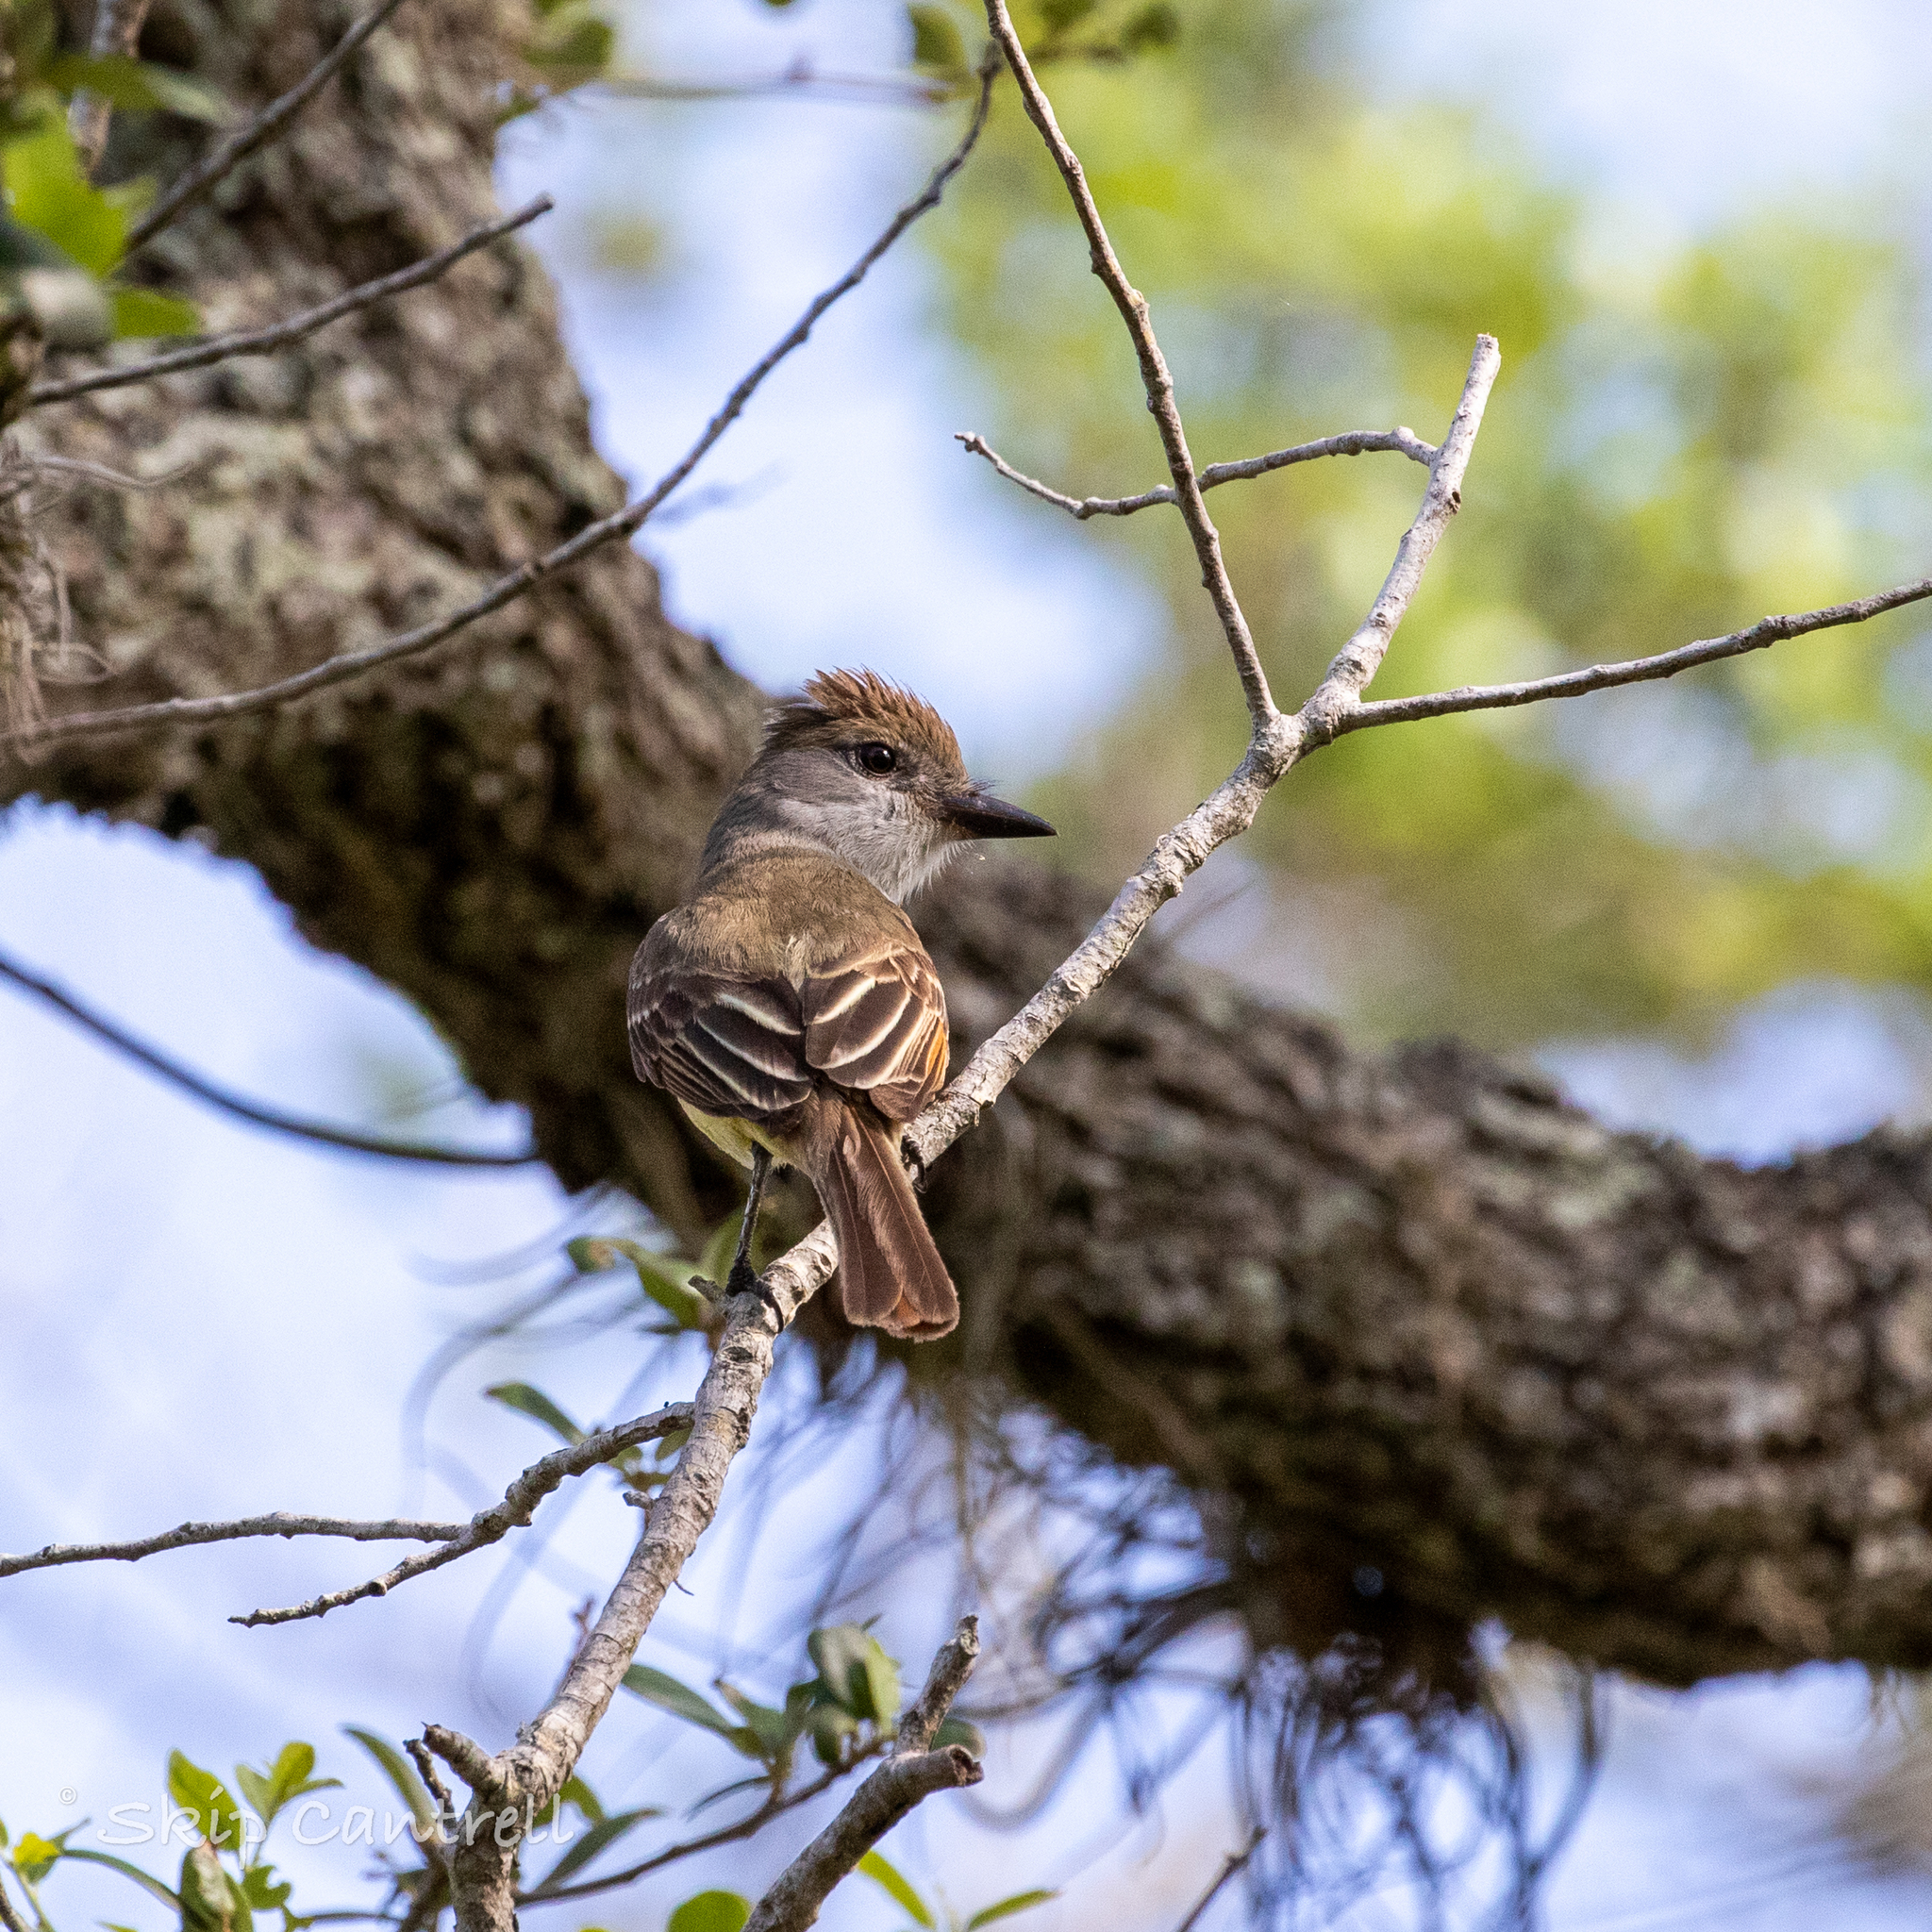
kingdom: Animalia
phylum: Chordata
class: Aves
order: Passeriformes
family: Tyrannidae
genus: Myiarchus
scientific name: Myiarchus tyrannulus
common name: Brown-crested flycatcher
